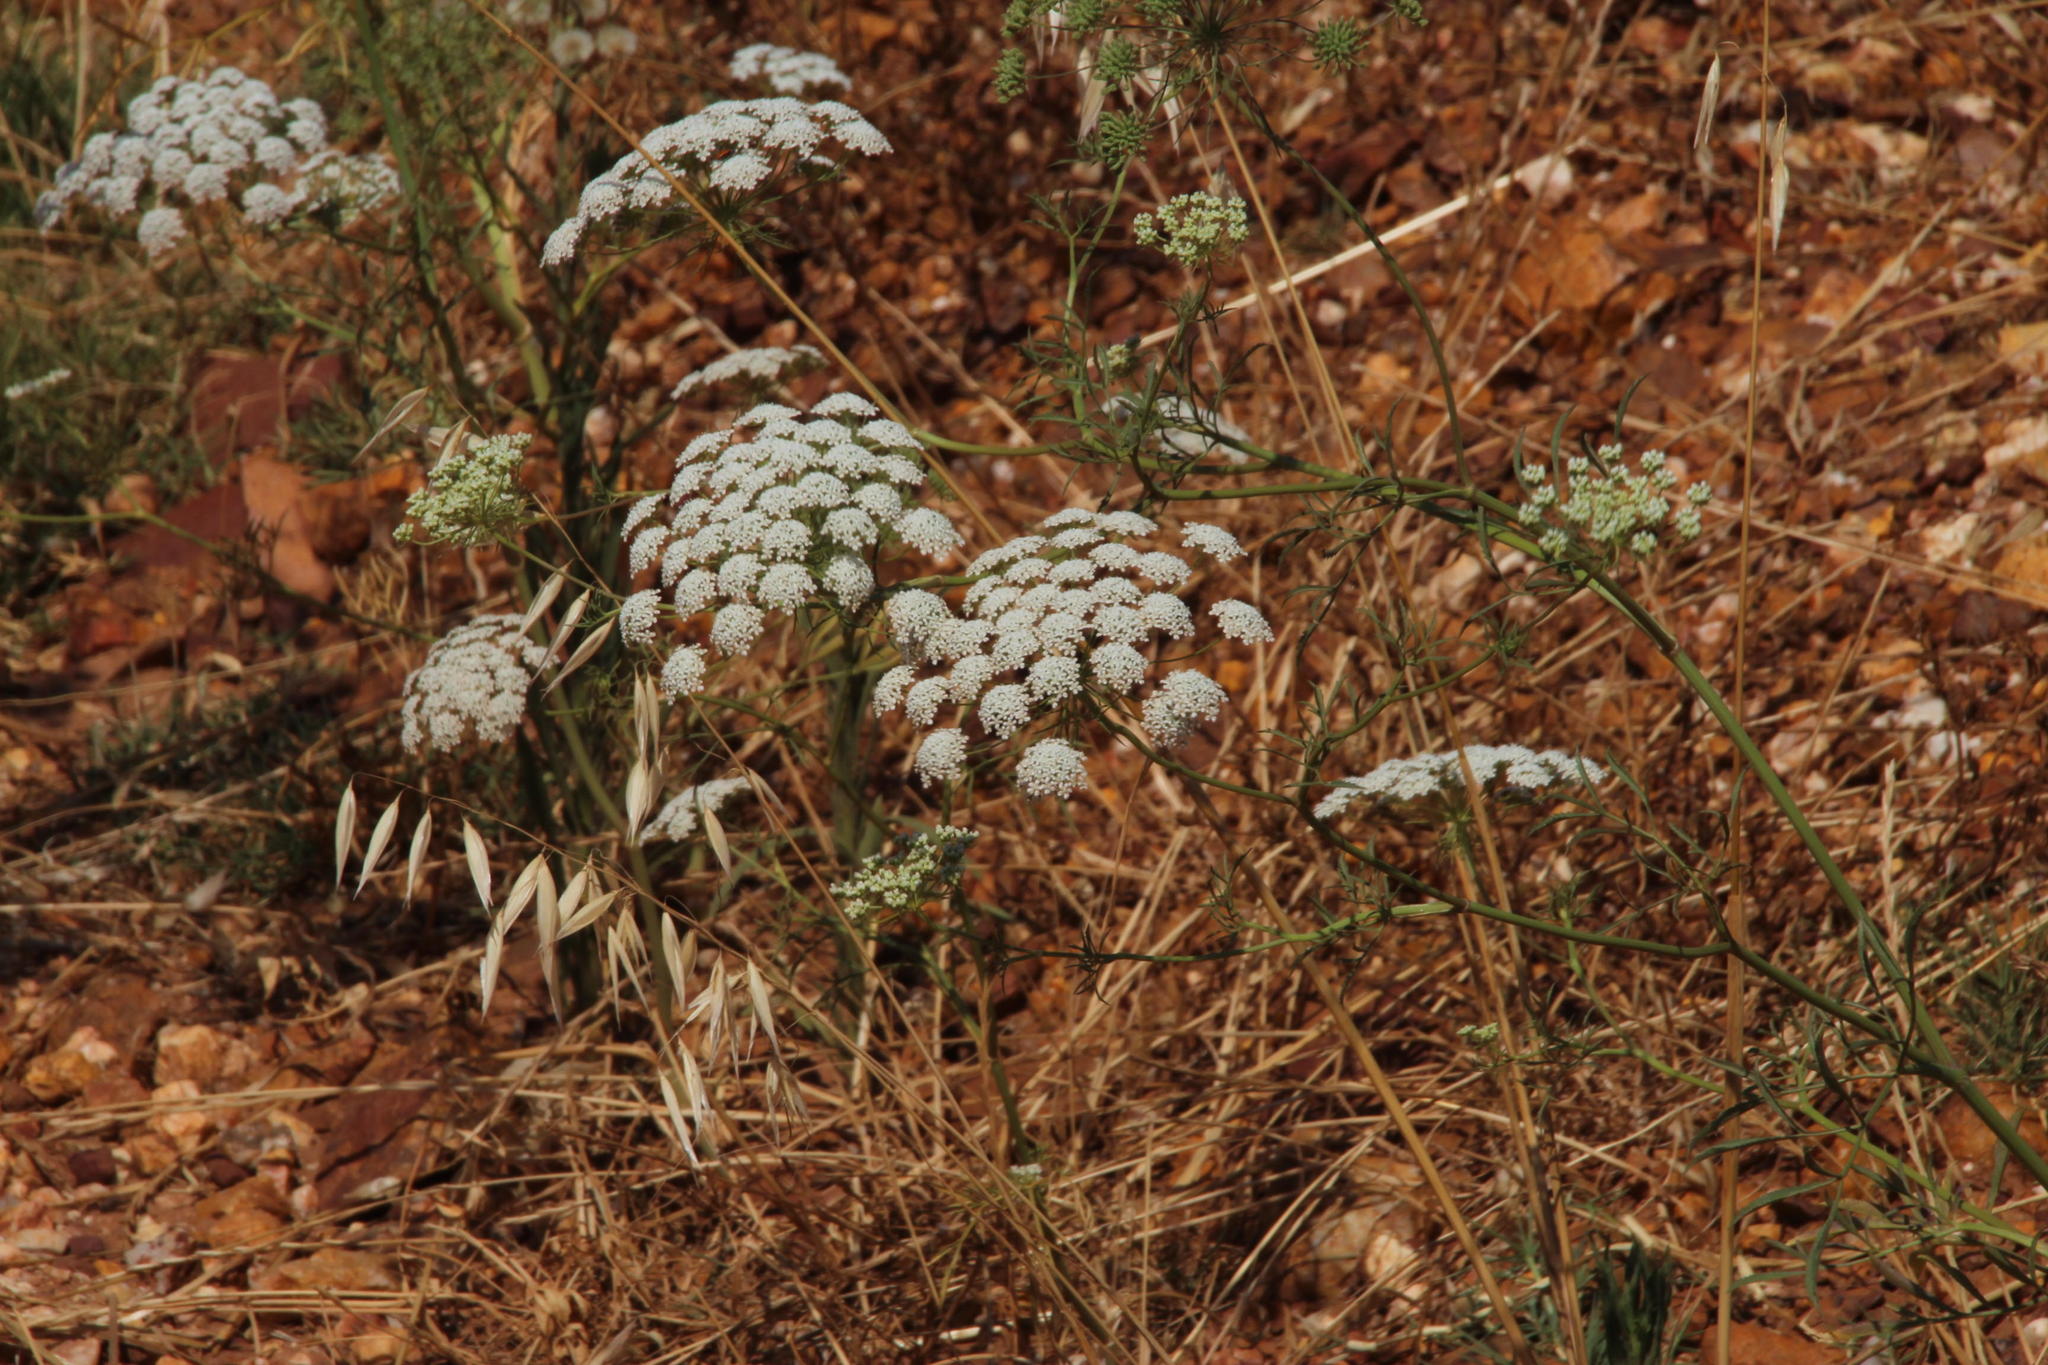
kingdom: Plantae
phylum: Tracheophyta
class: Magnoliopsida
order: Apiales
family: Apiaceae
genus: Ammi
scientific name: Ammi majus
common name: Bullwort
